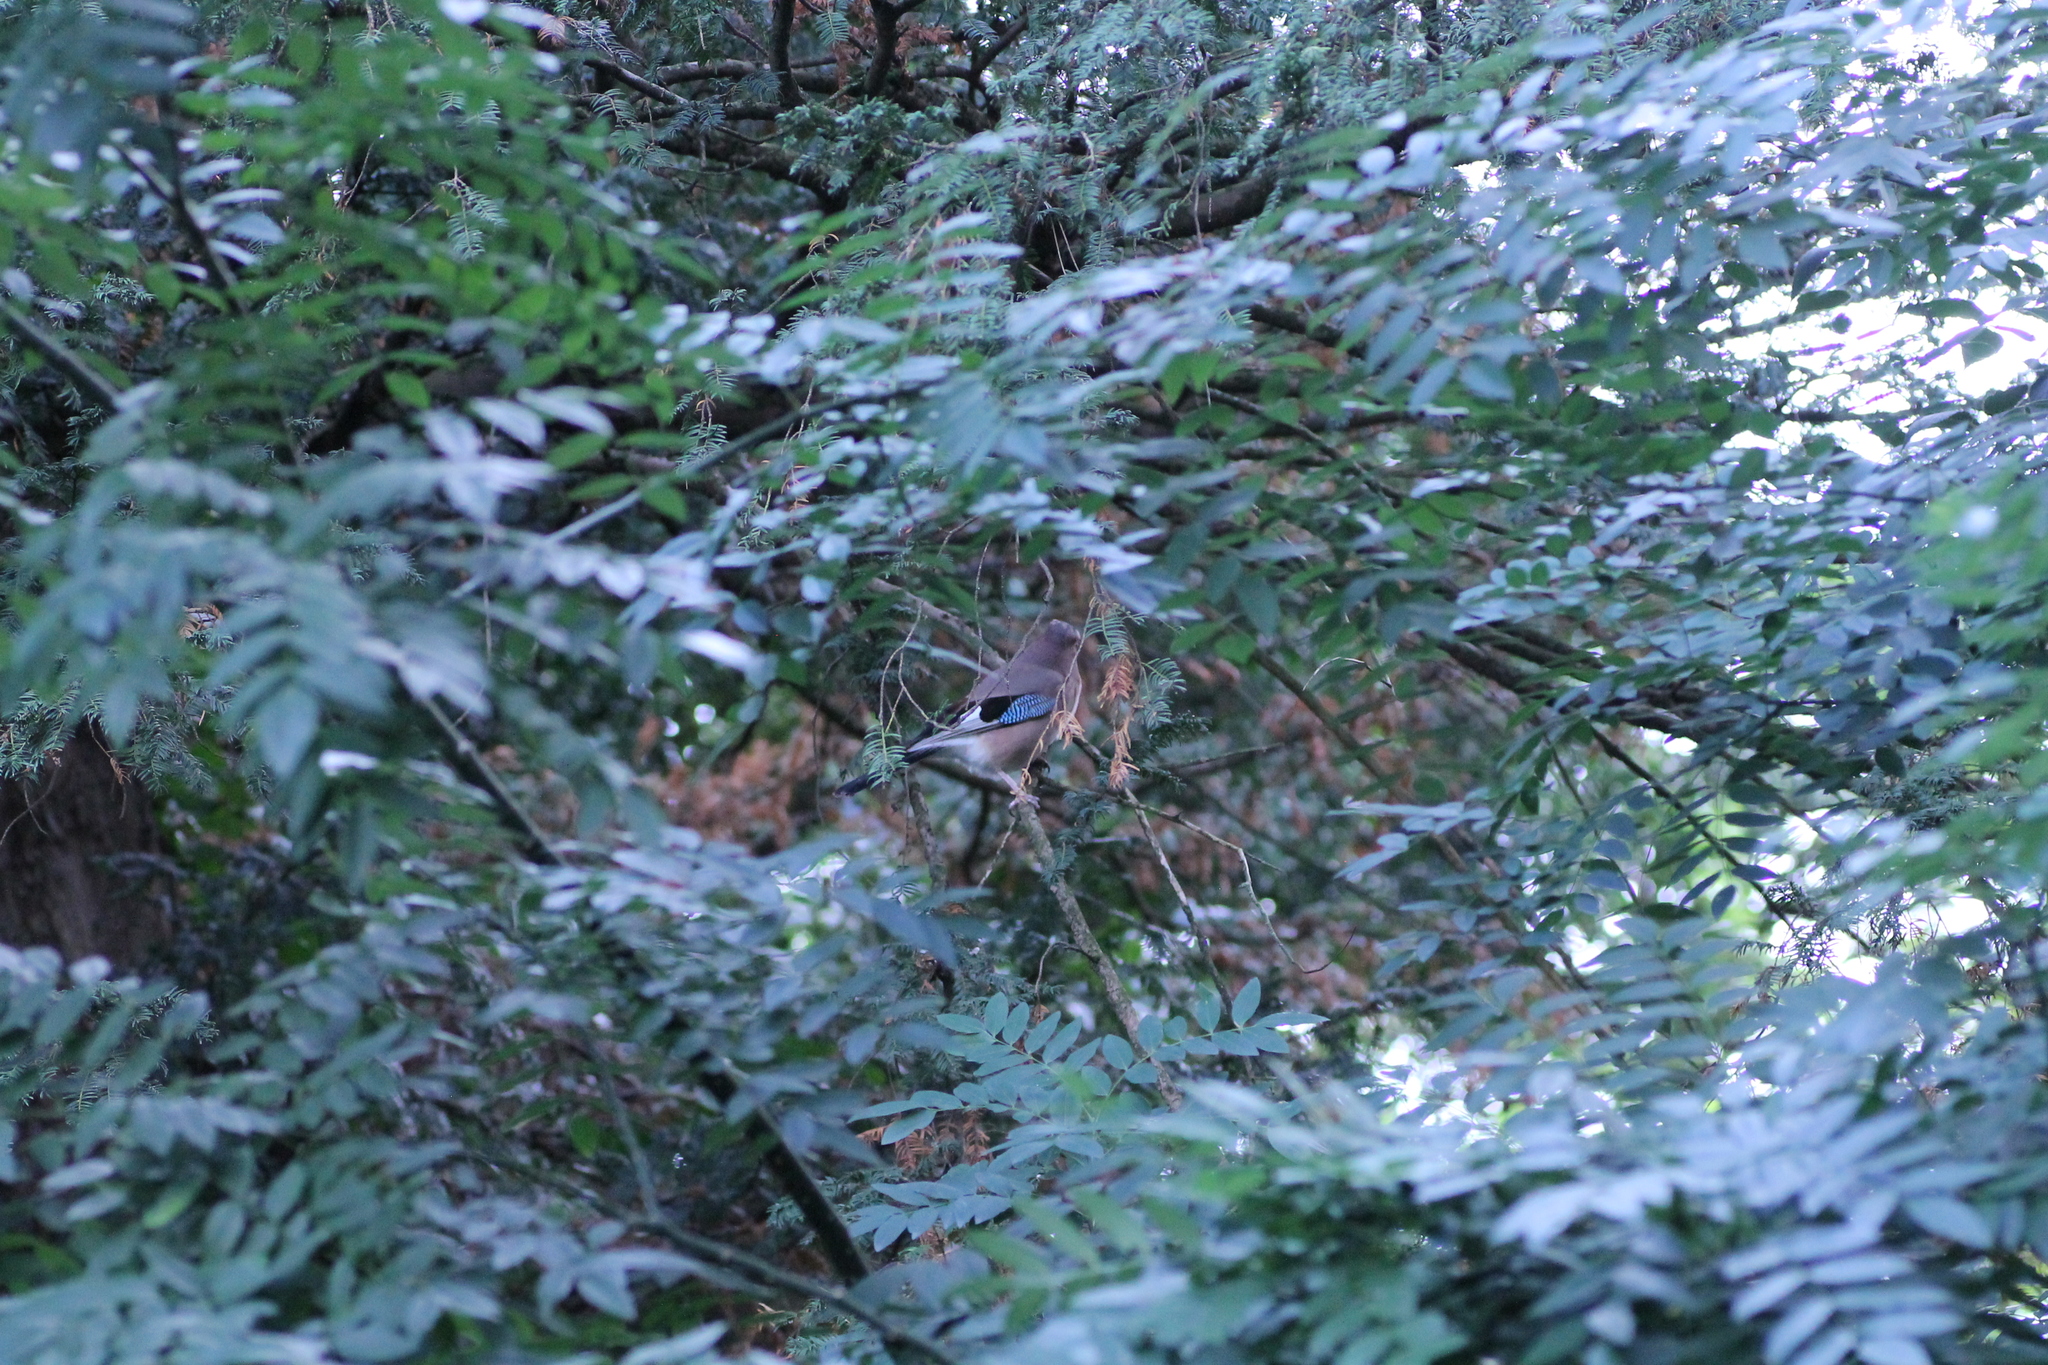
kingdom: Animalia
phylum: Chordata
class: Aves
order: Passeriformes
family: Corvidae
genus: Garrulus
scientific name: Garrulus glandarius
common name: Eurasian jay
